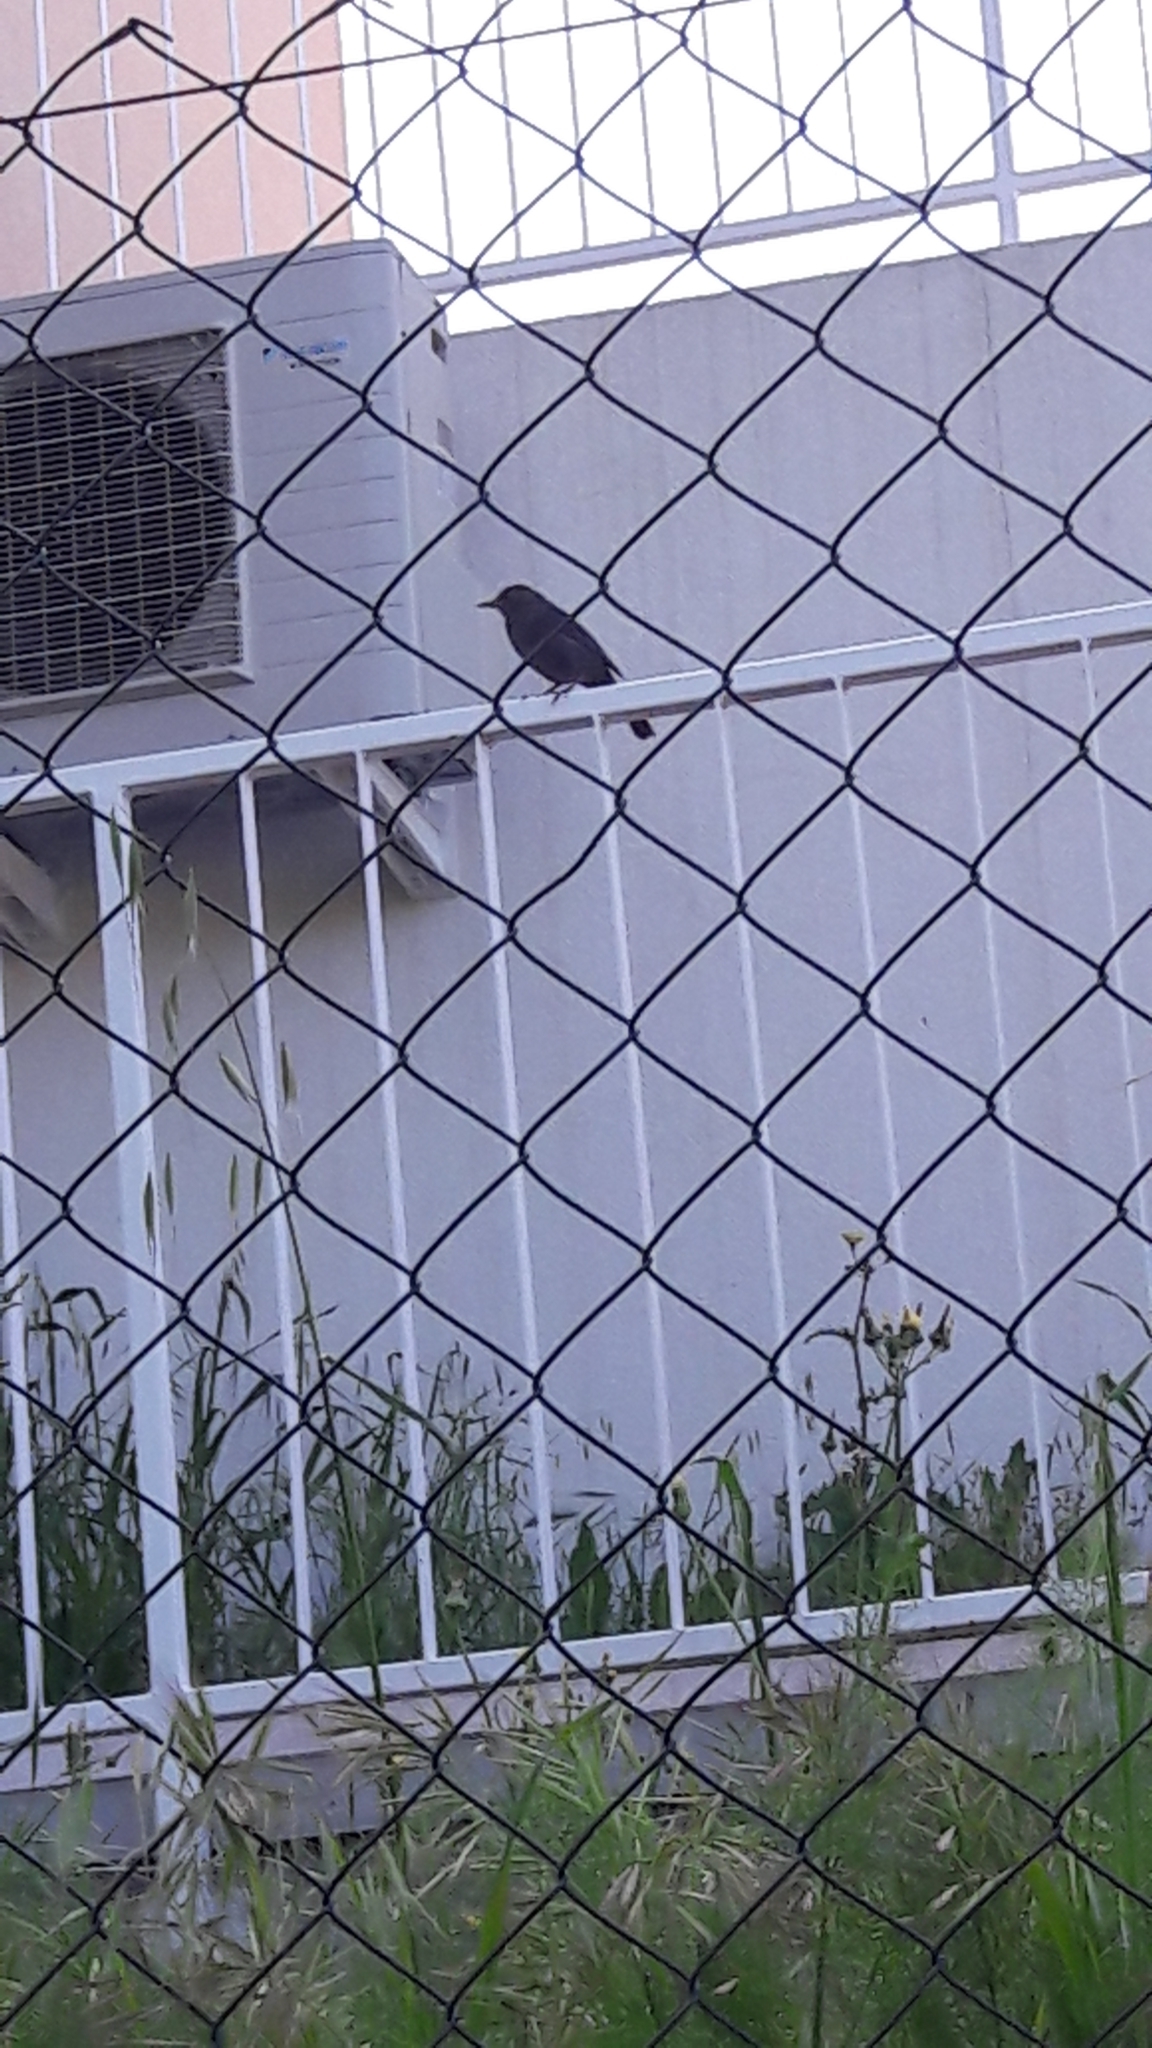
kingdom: Animalia
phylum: Chordata
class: Aves
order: Passeriformes
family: Turdidae
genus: Turdus
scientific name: Turdus merula
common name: Common blackbird
